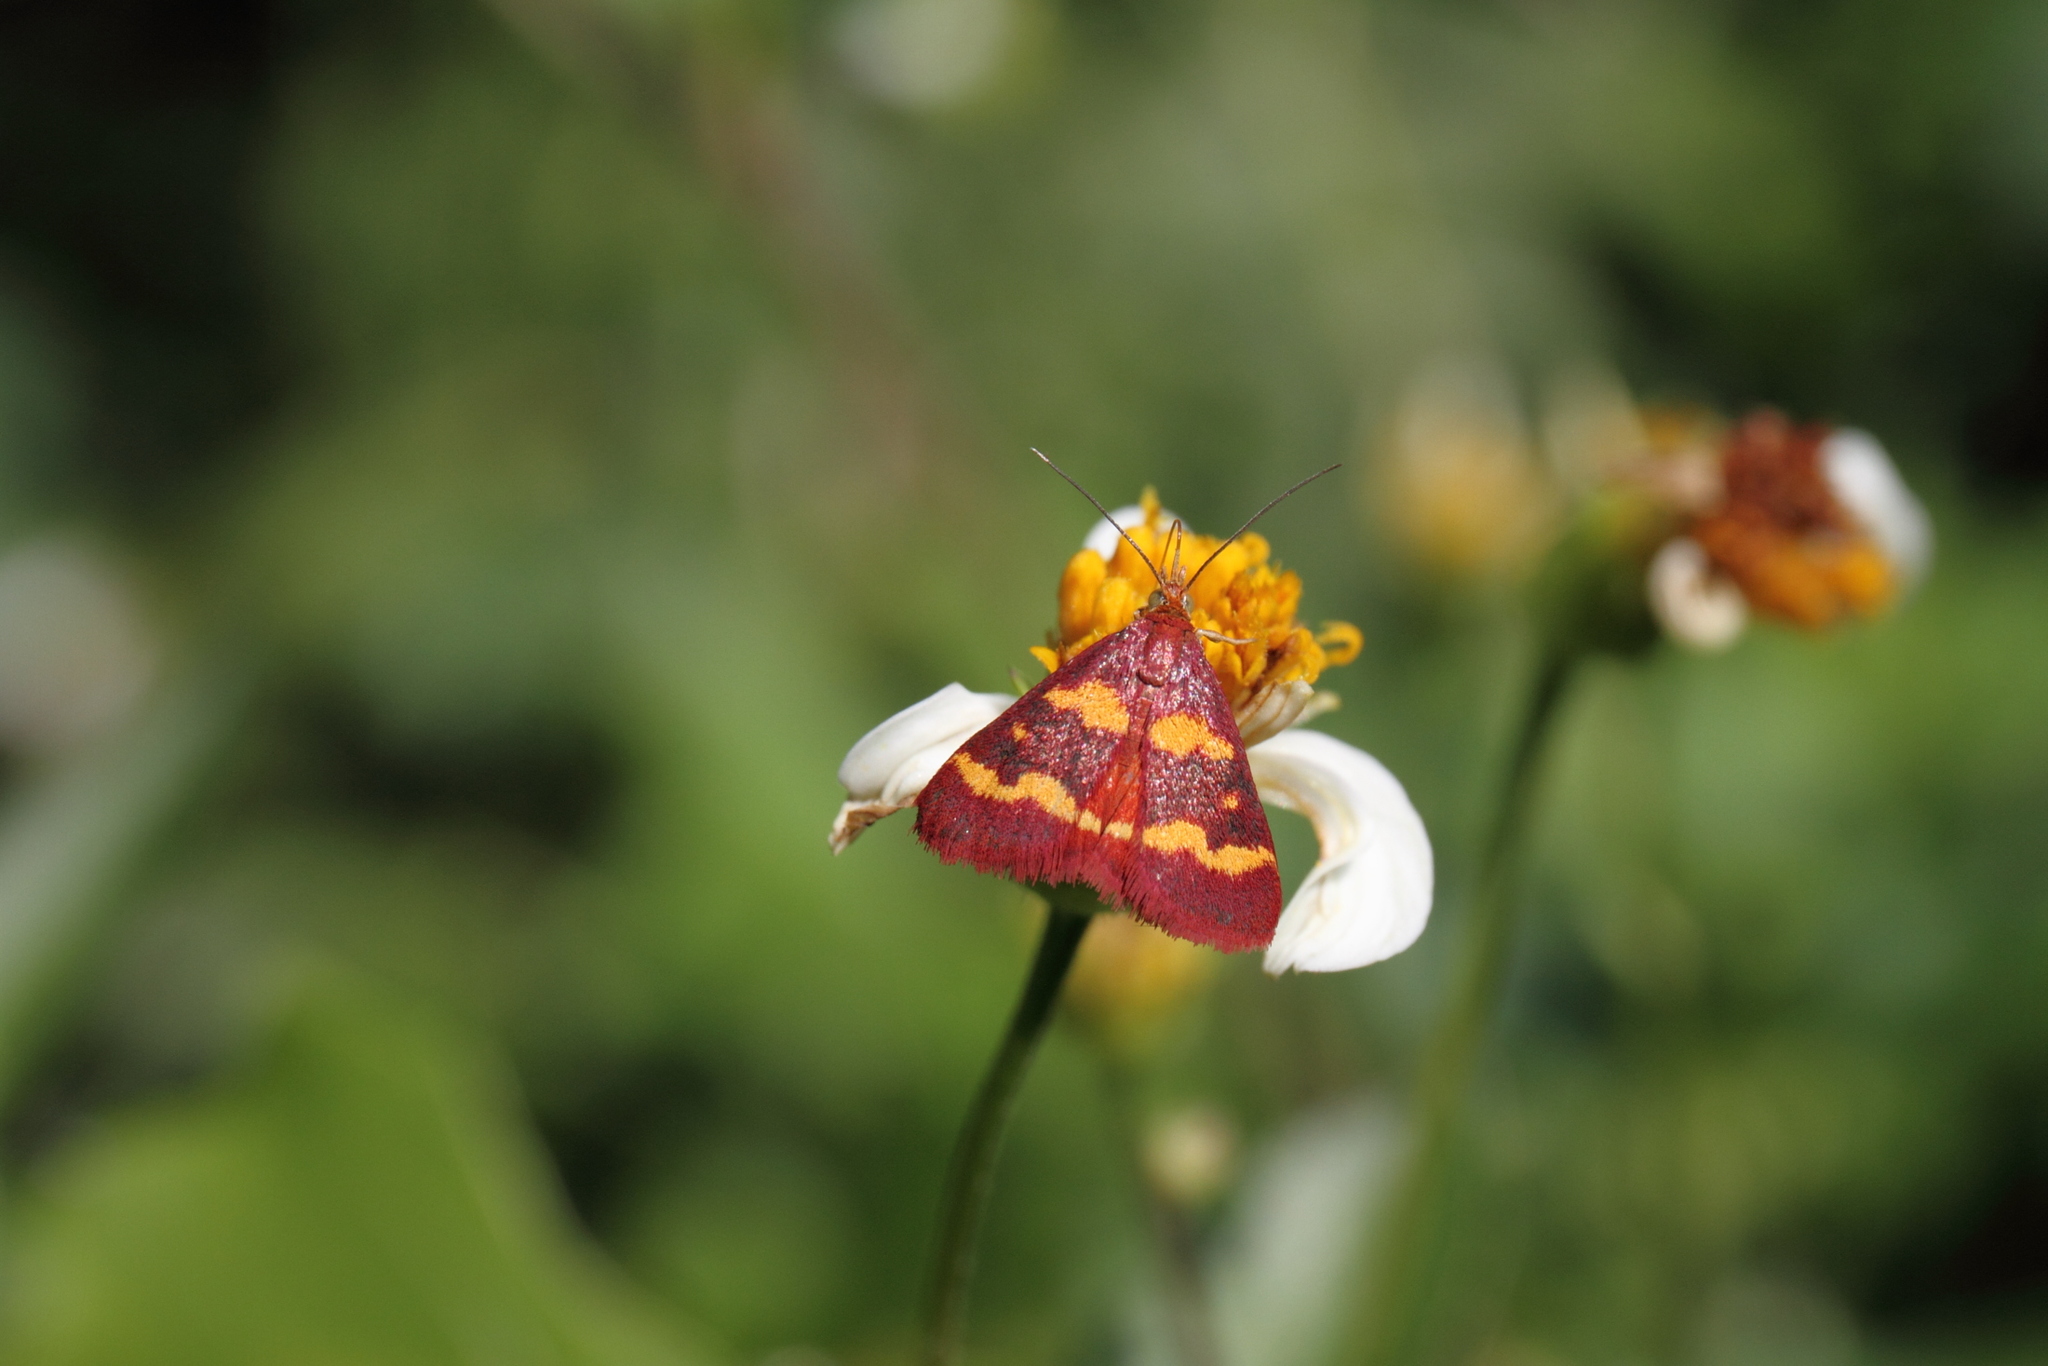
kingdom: Animalia
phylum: Arthropoda
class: Insecta
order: Lepidoptera
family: Crambidae
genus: Pyrausta
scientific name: Pyrausta tyralis
